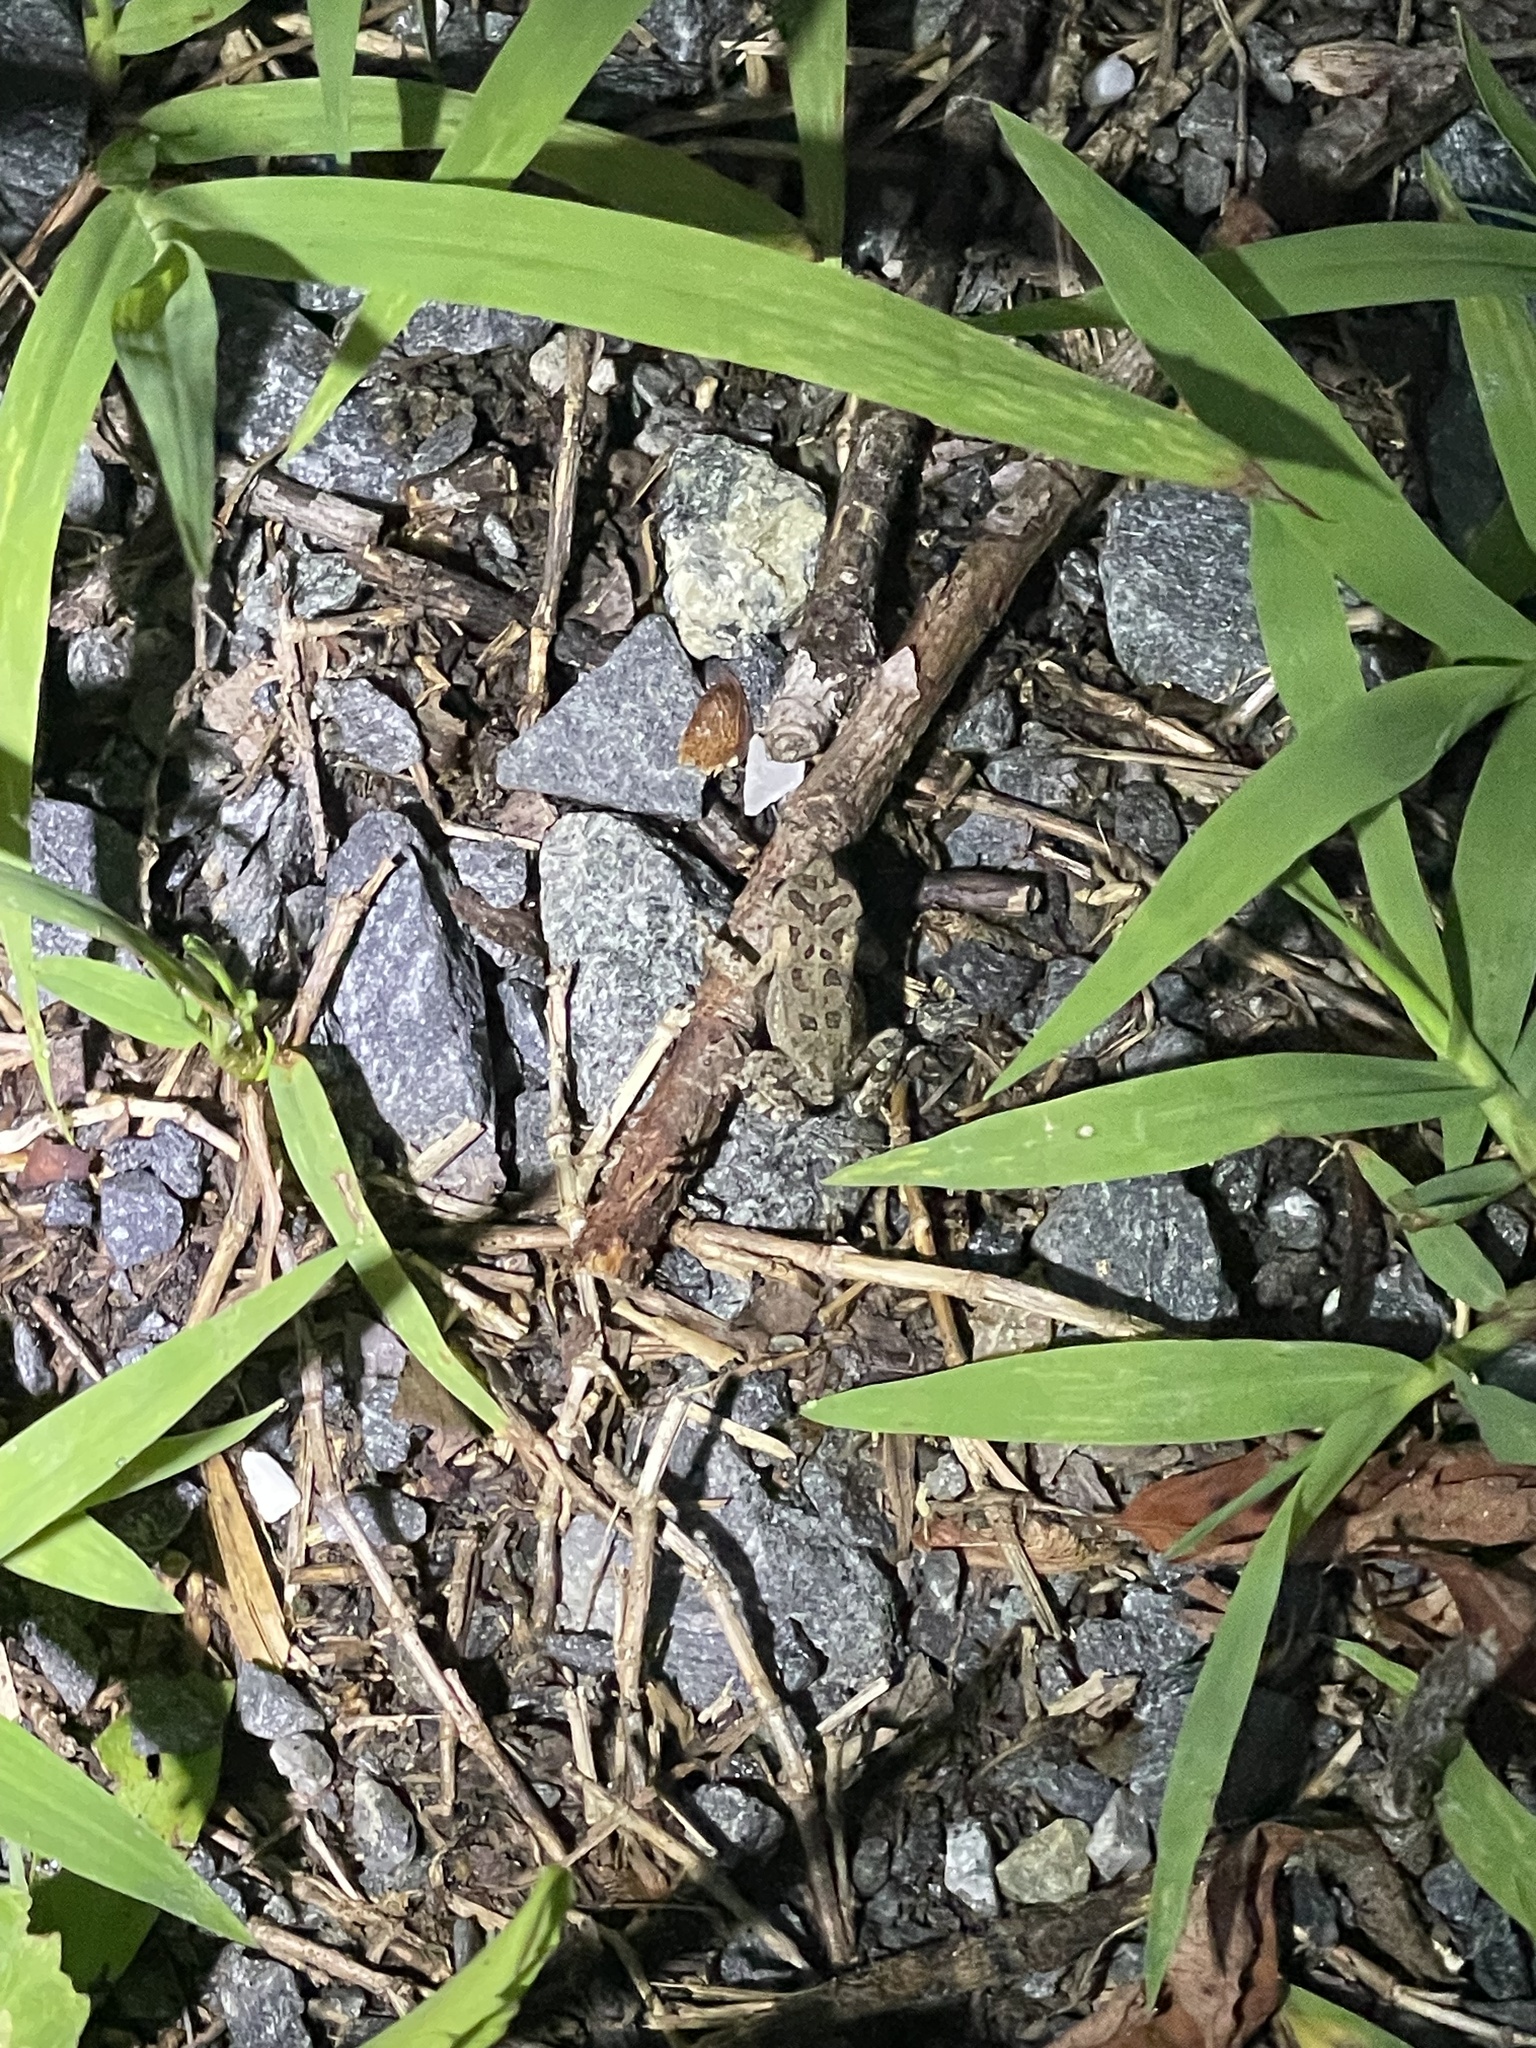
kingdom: Animalia
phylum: Chordata
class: Amphibia
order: Anura
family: Bufonidae
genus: Anaxyrus
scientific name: Anaxyrus fowleri
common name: Fowler's toad
